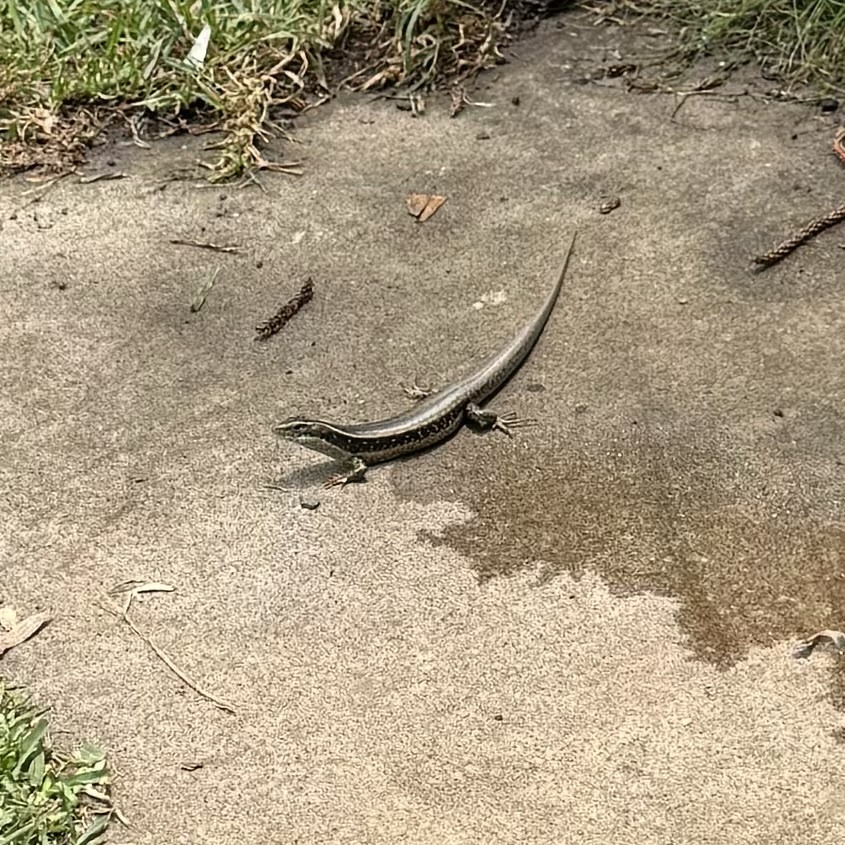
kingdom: Animalia
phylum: Chordata
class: Squamata
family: Scincidae
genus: Eulamprus
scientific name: Eulamprus quoyii
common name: Eastern water skink
